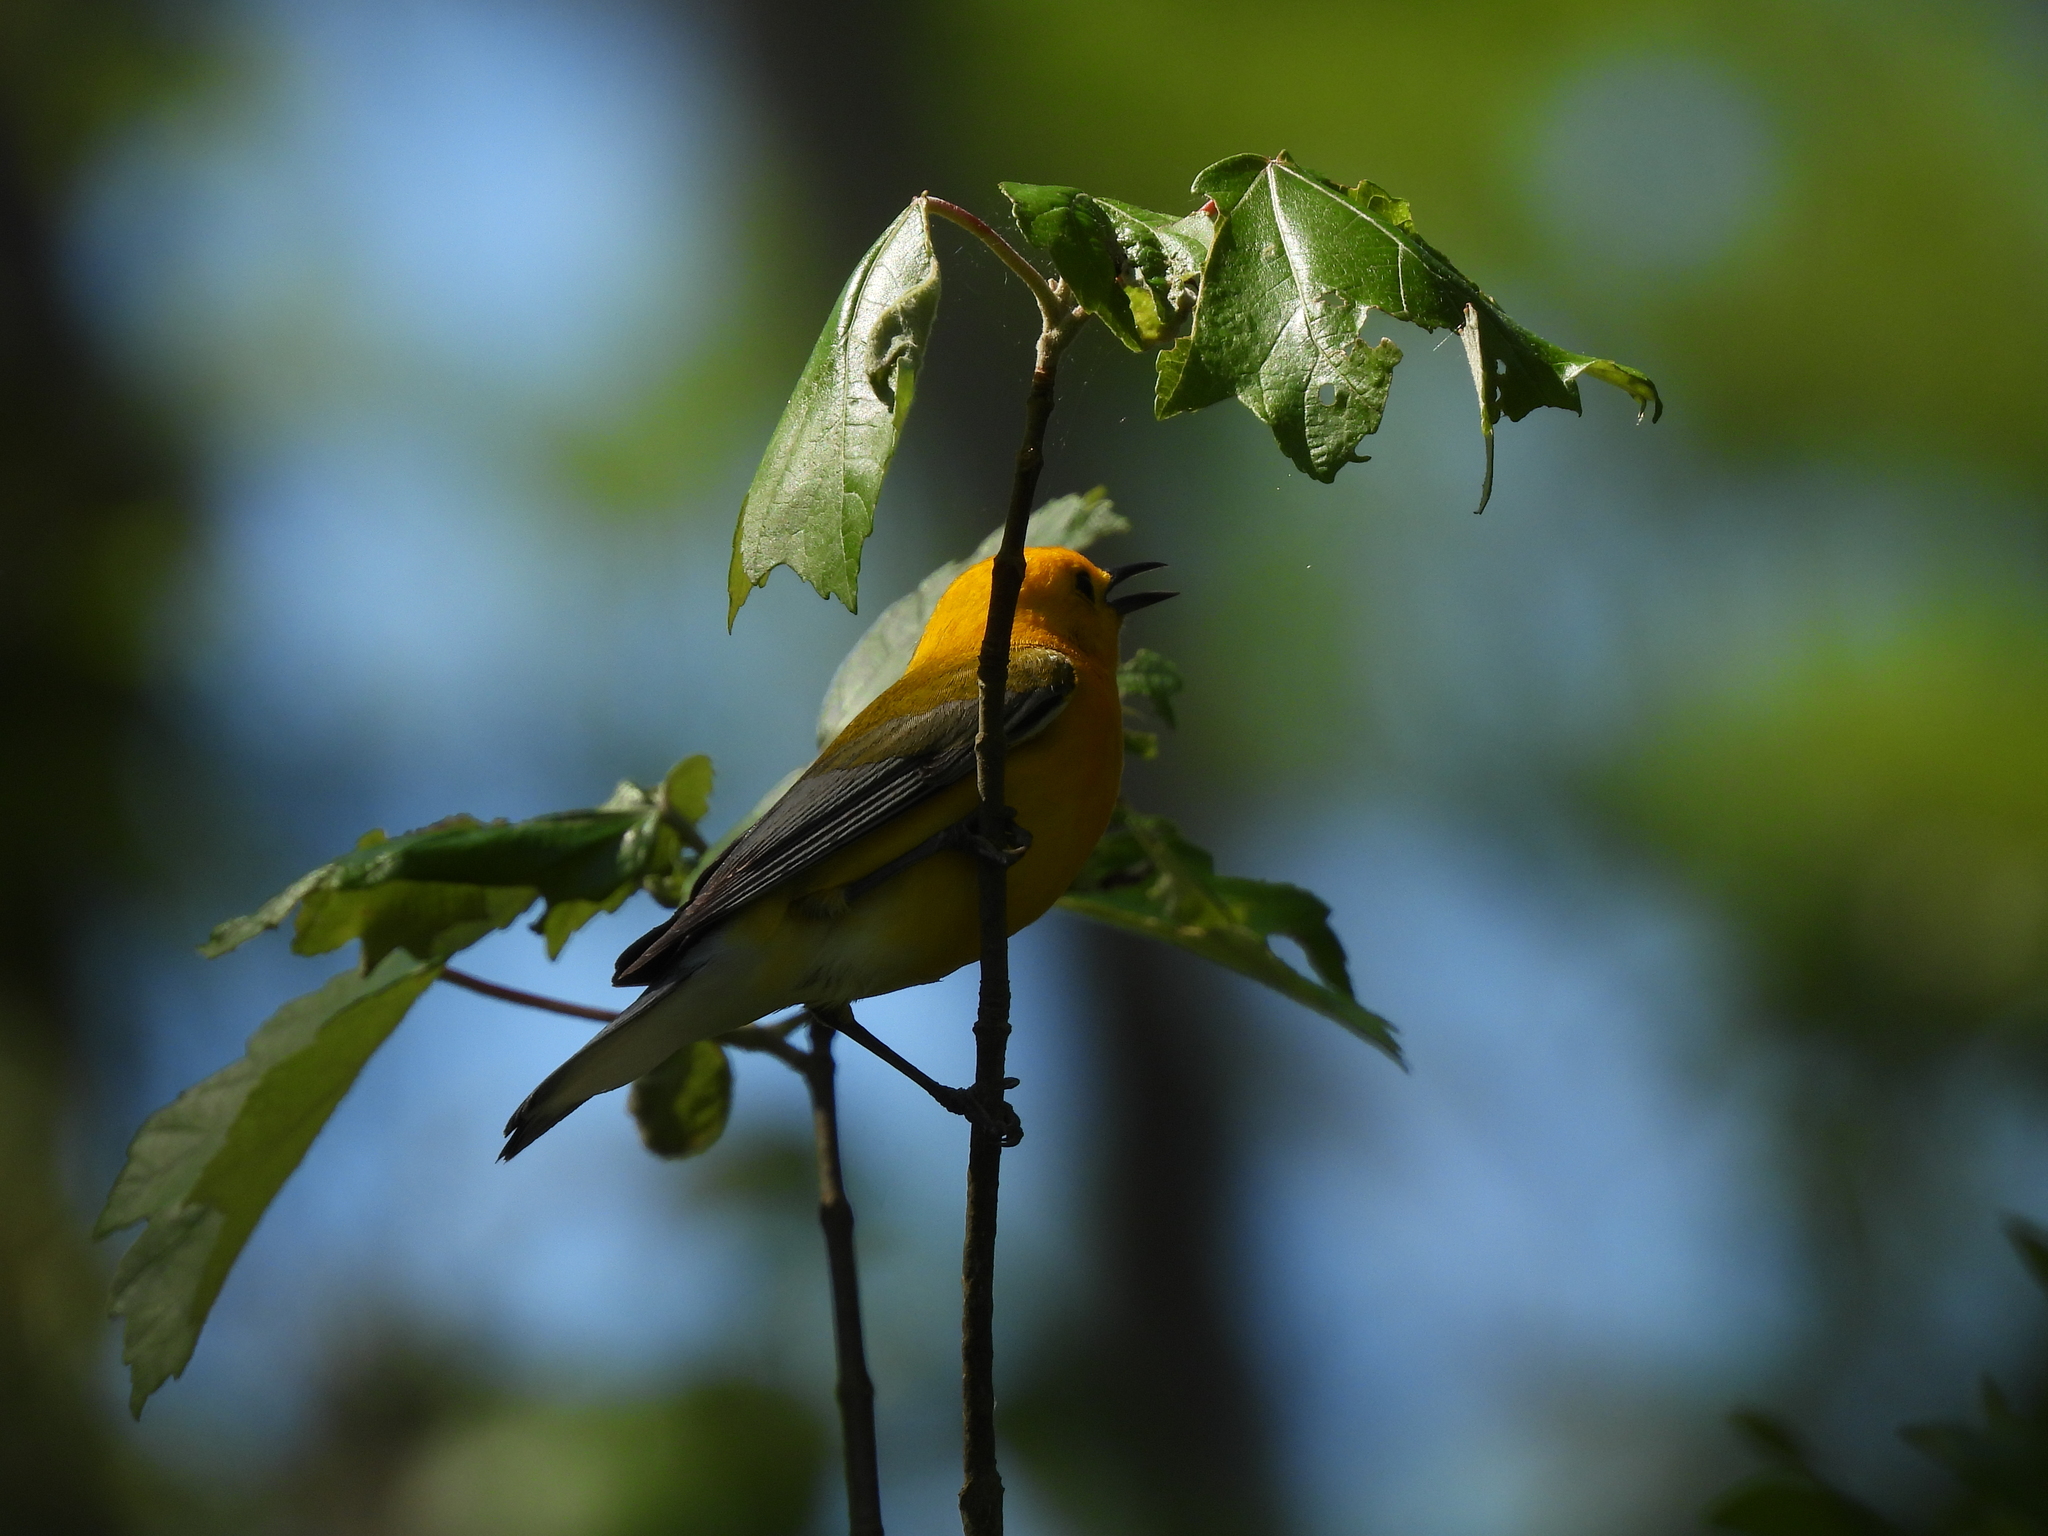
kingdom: Animalia
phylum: Chordata
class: Aves
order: Passeriformes
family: Parulidae
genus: Protonotaria
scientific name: Protonotaria citrea
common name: Prothonotary warbler
